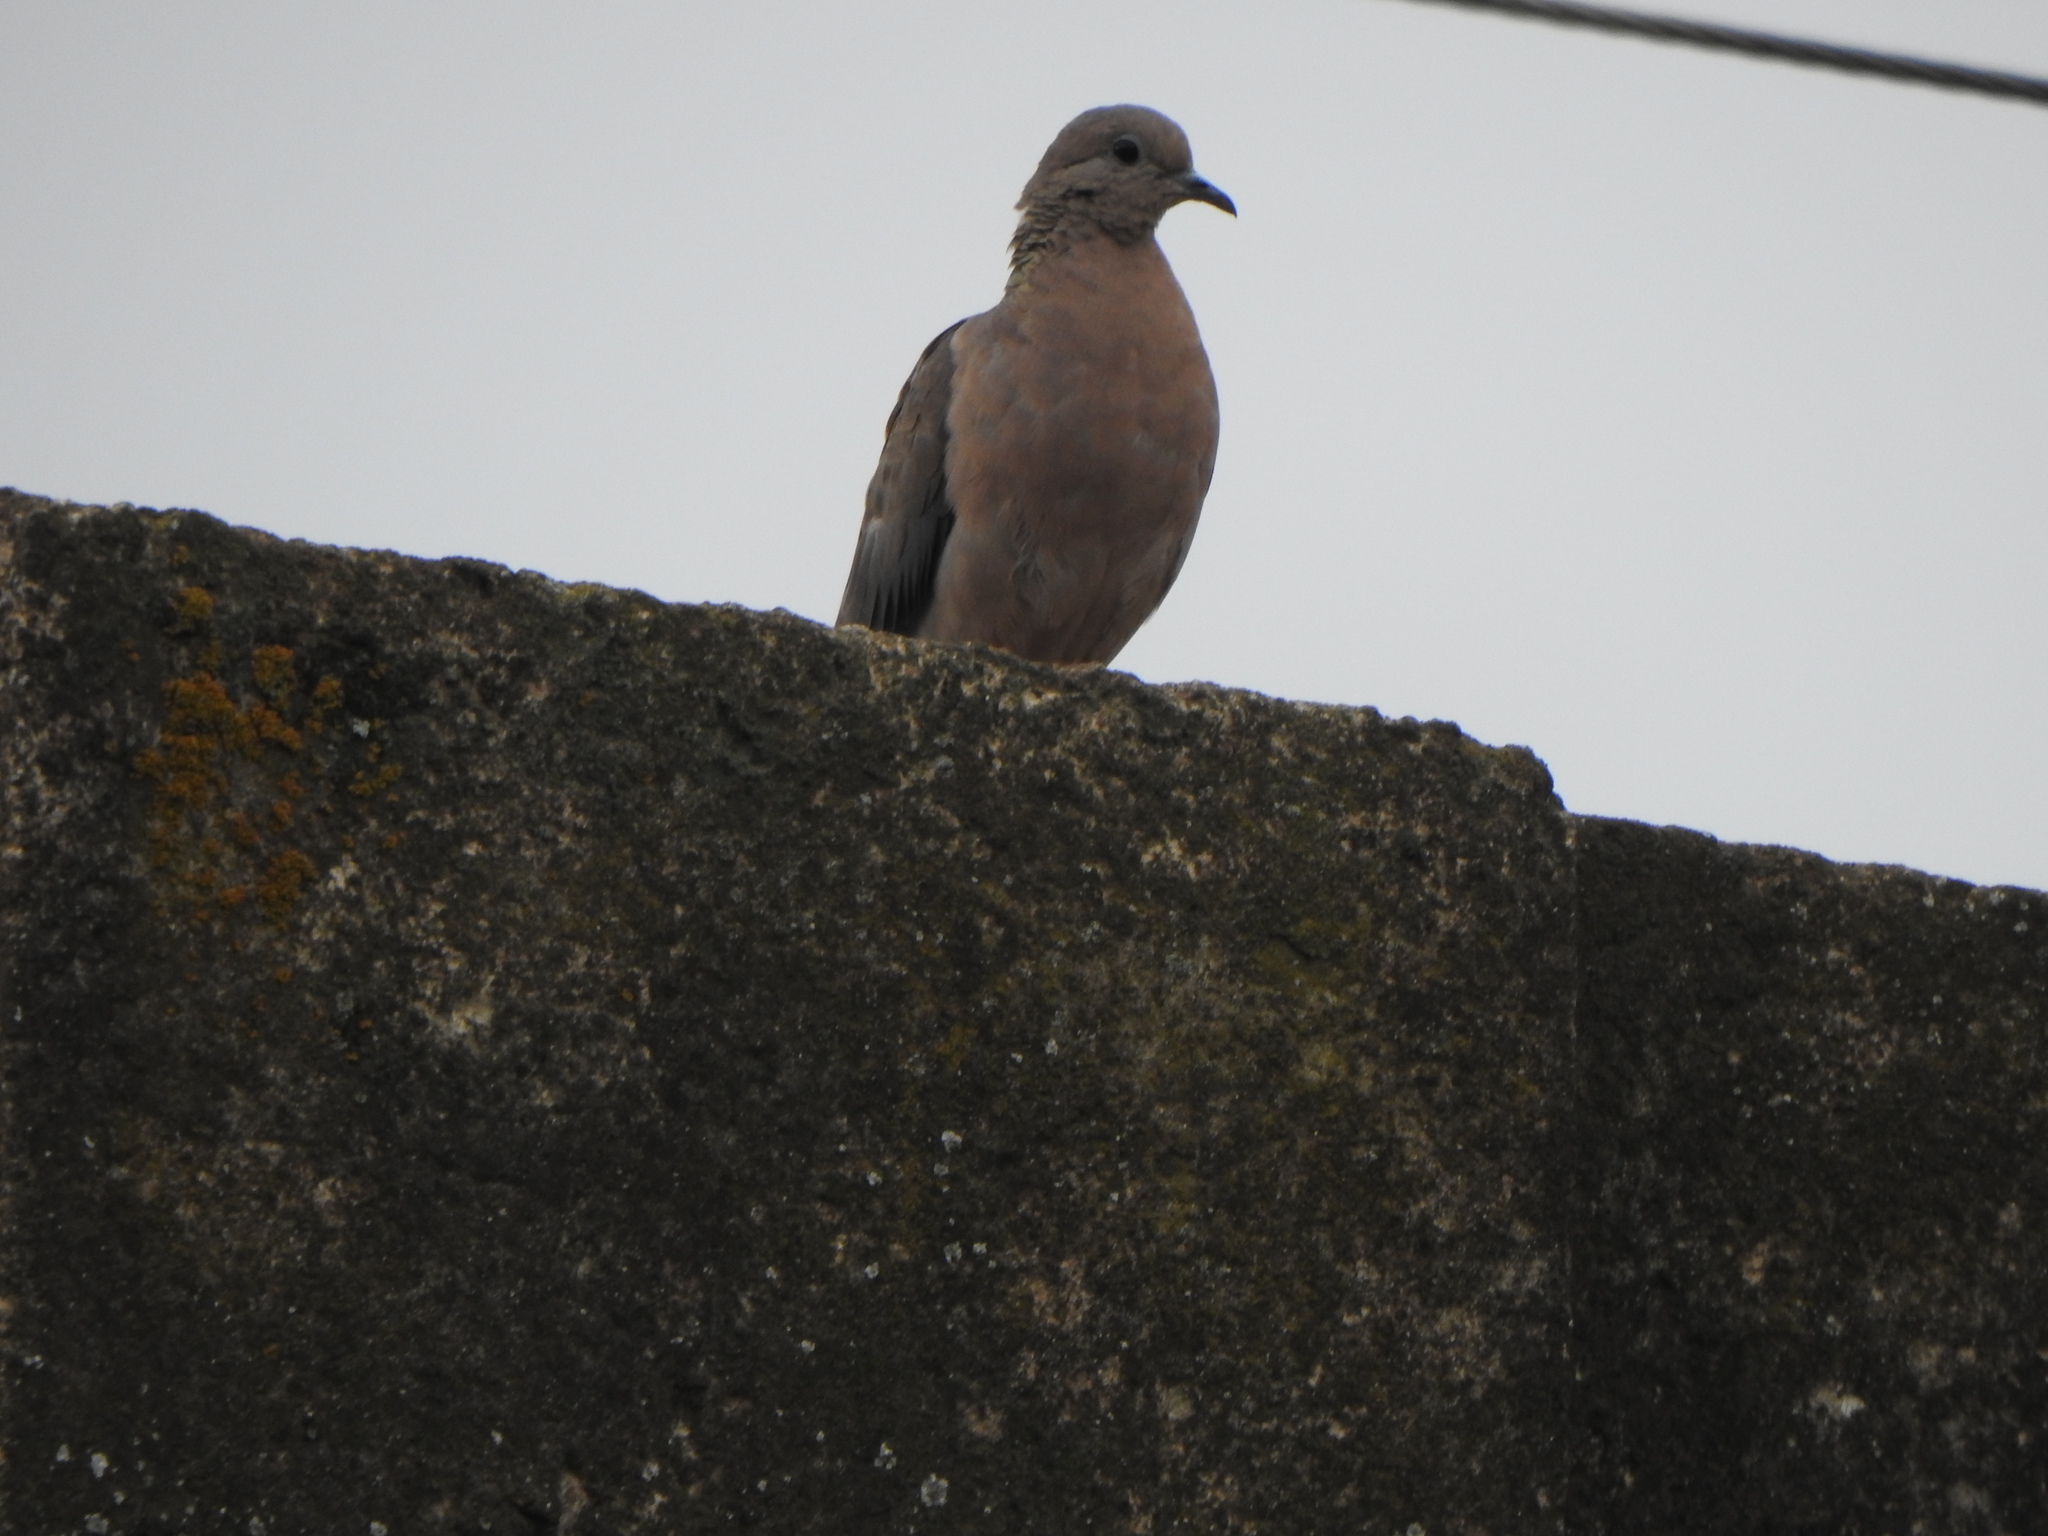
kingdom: Animalia
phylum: Chordata
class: Aves
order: Columbiformes
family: Columbidae
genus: Zenaida
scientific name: Zenaida auriculata
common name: Eared dove
